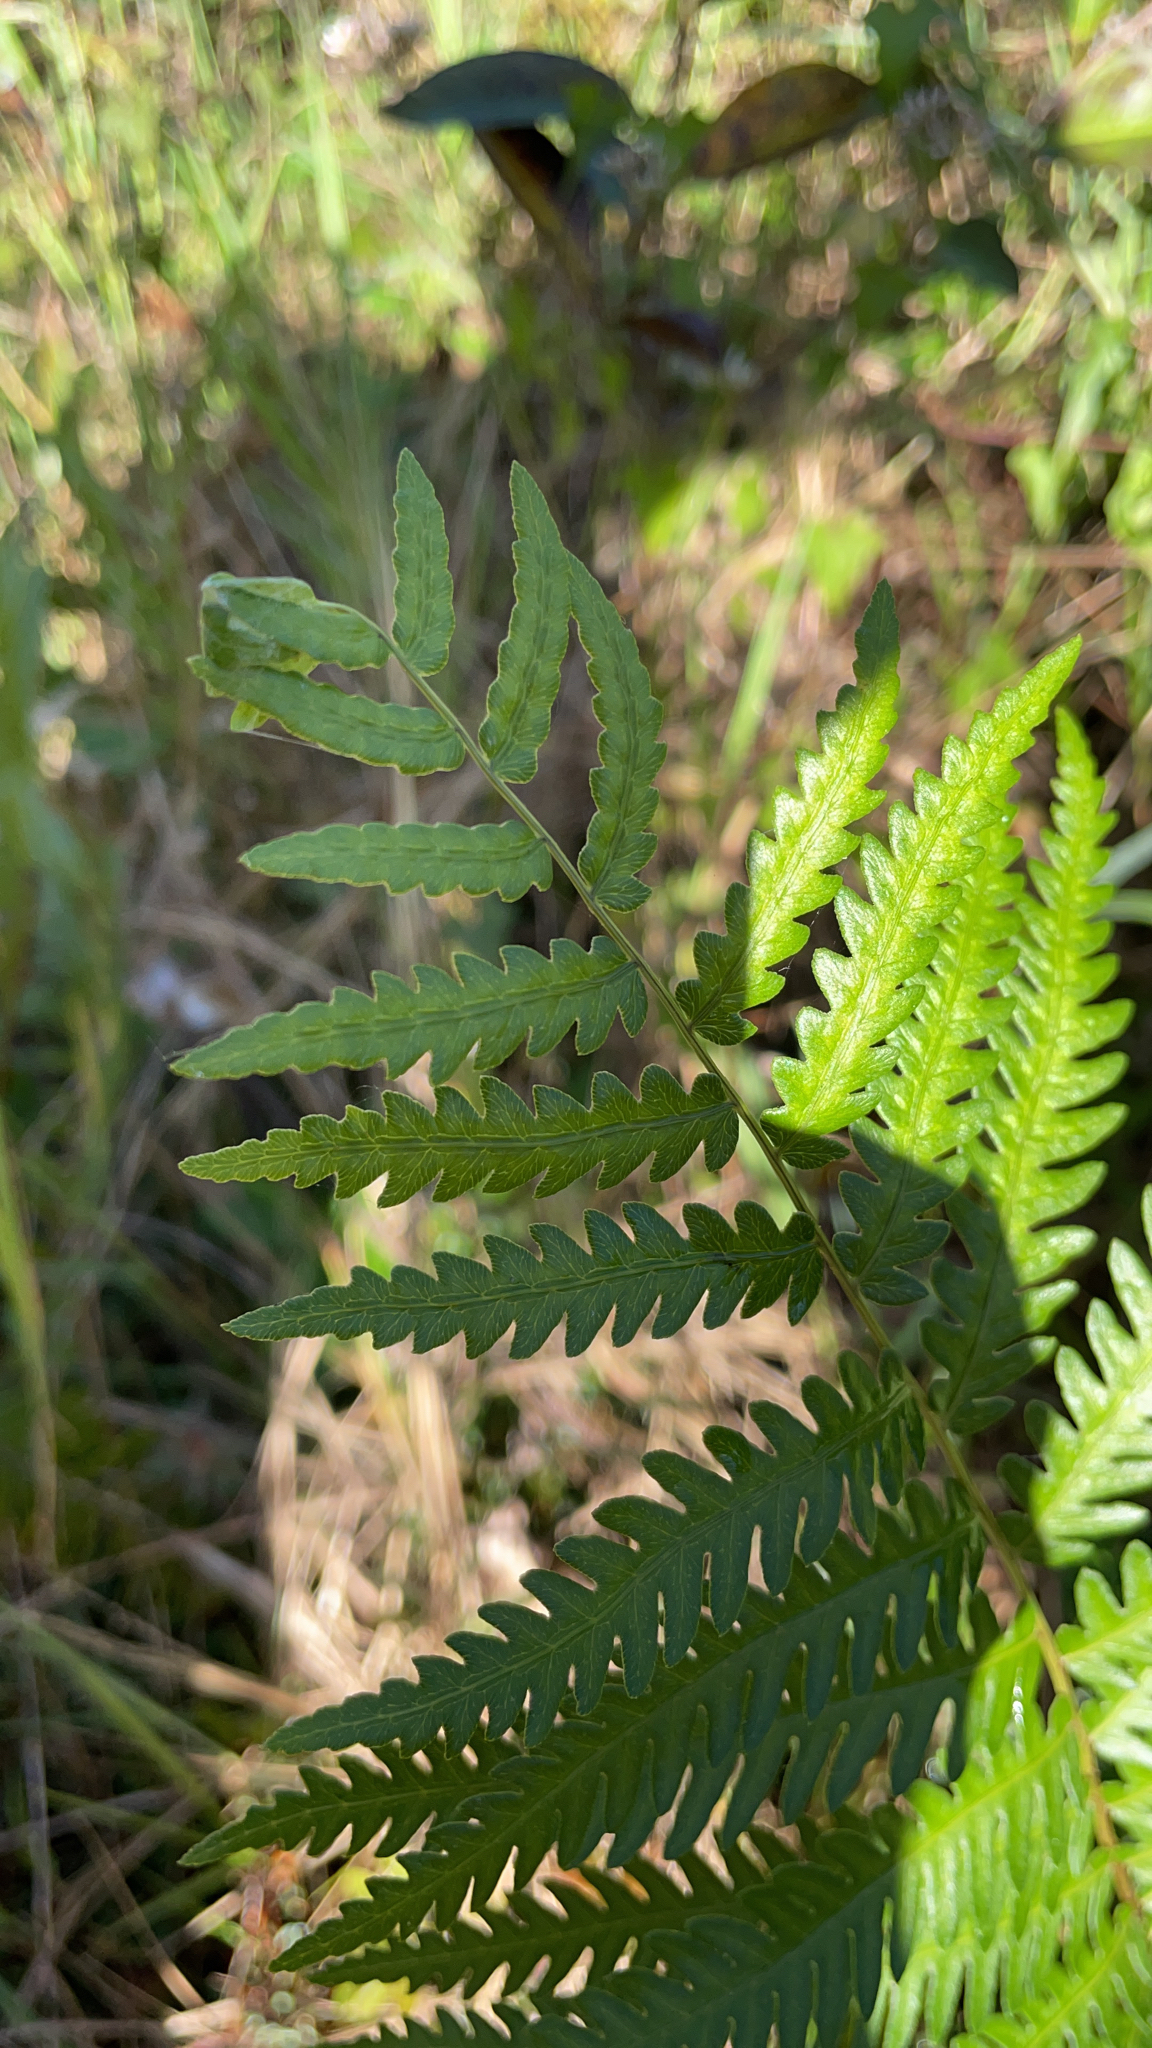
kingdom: Plantae
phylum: Tracheophyta
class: Polypodiopsida
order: Polypodiales
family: Blechnaceae
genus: Anchistea
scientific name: Anchistea virginica
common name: Virginia chain fern
